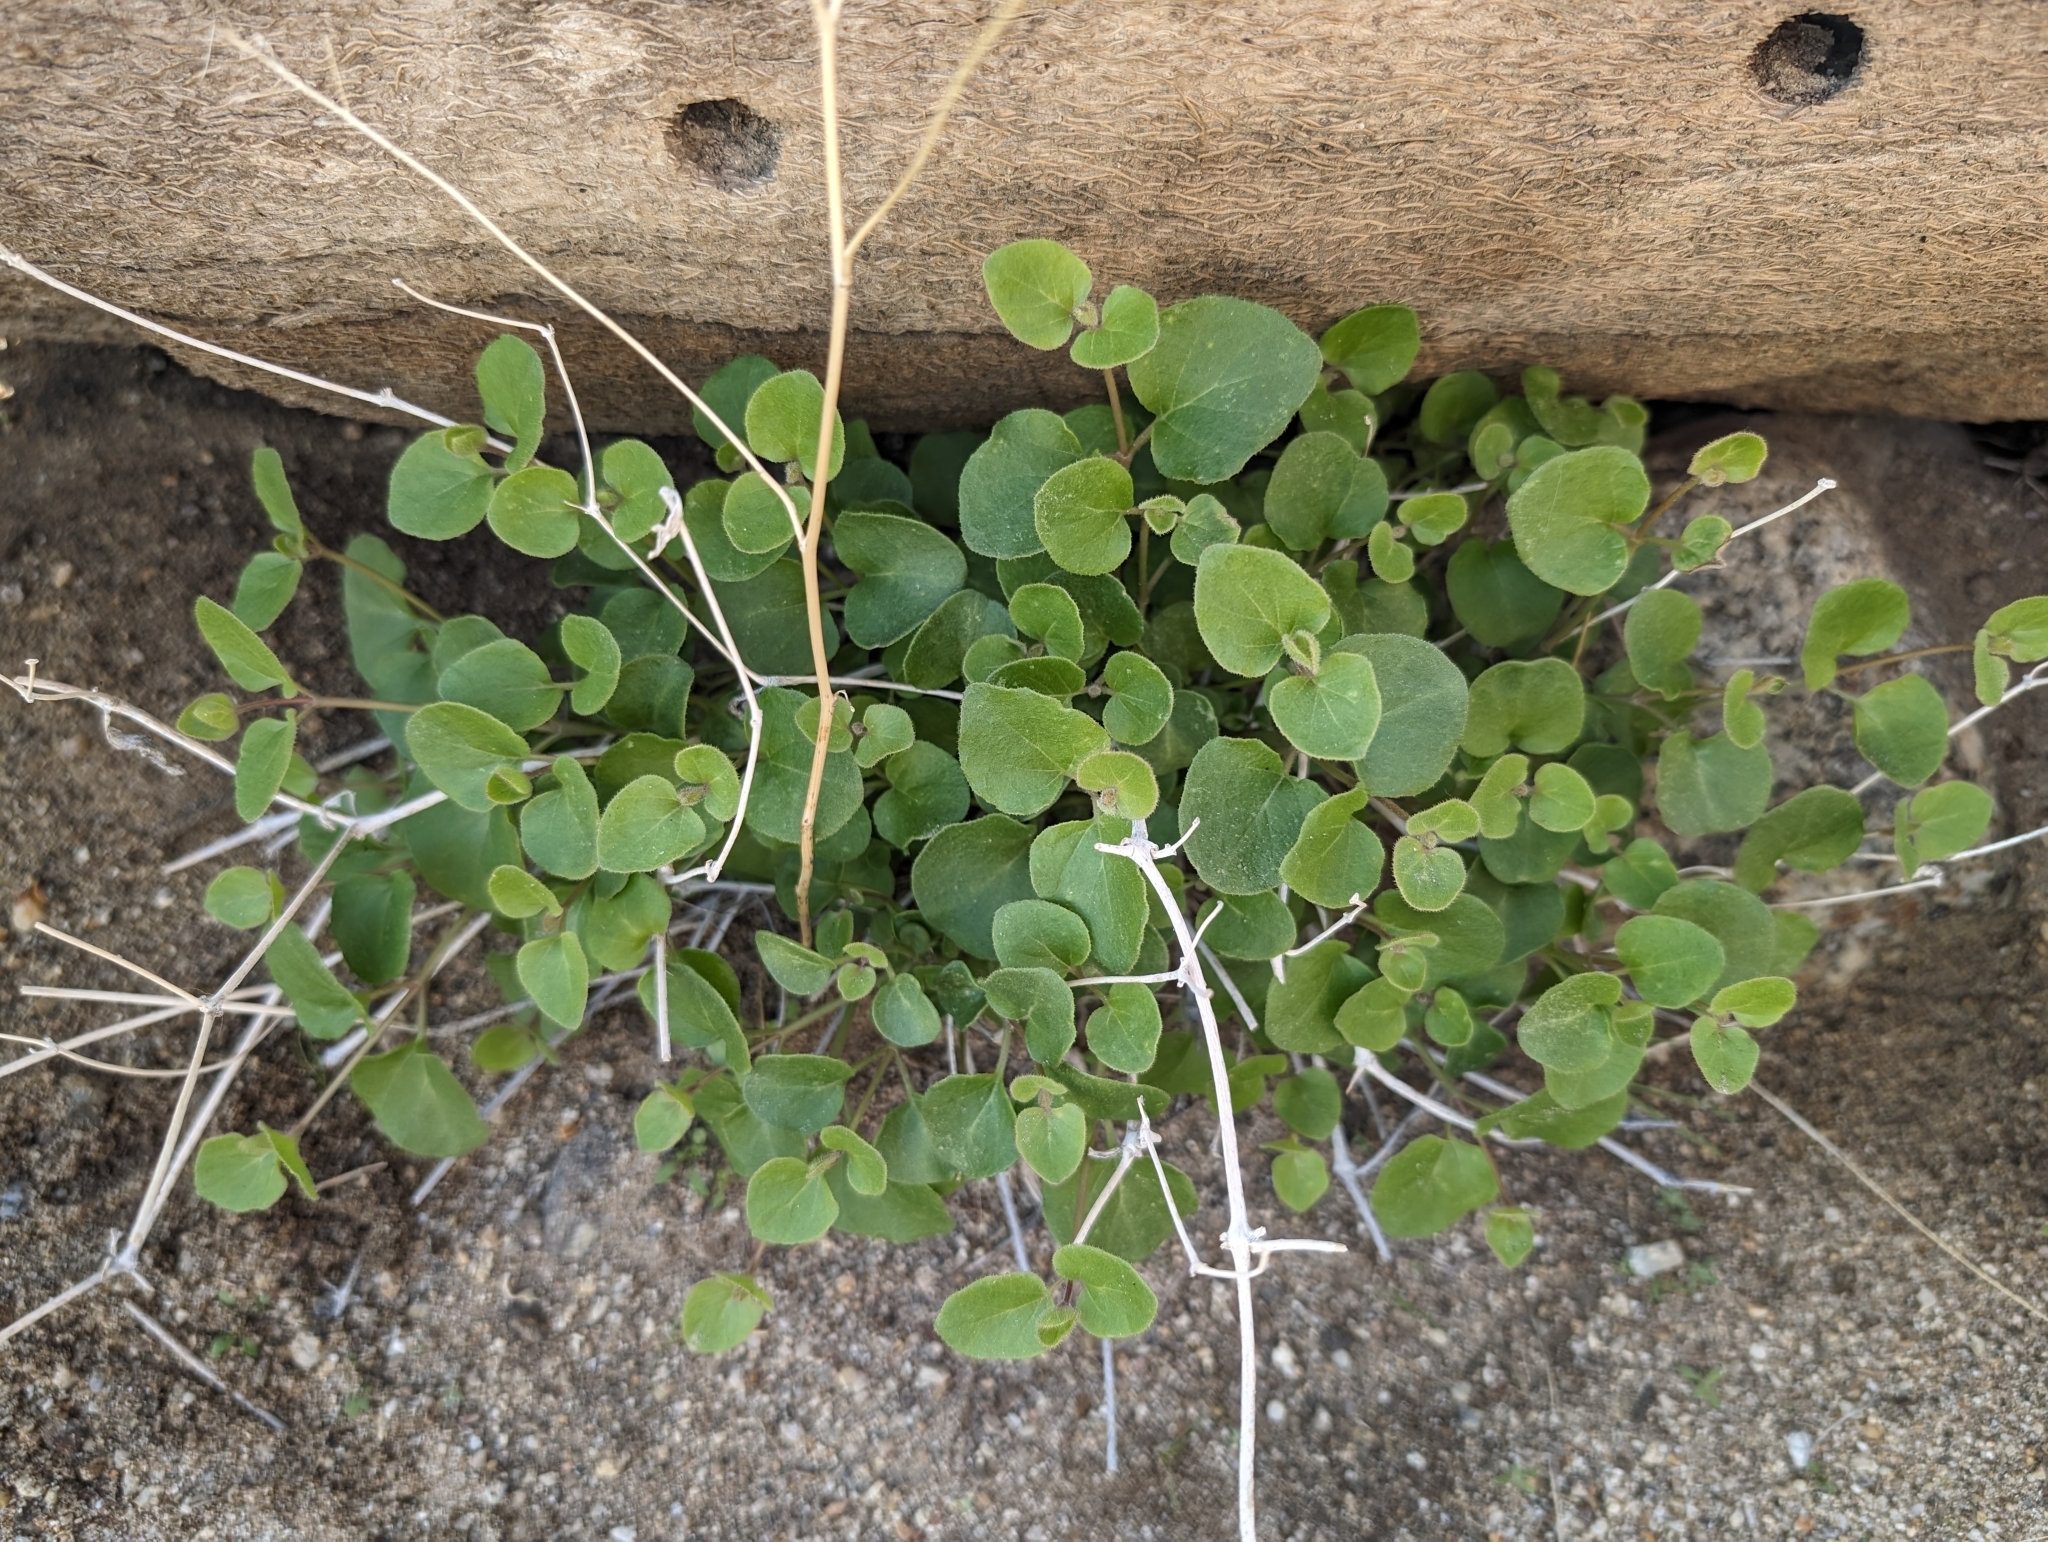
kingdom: Plantae
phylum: Tracheophyta
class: Magnoliopsida
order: Caryophyllales
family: Nyctaginaceae
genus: Mirabilis
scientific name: Mirabilis laevis
